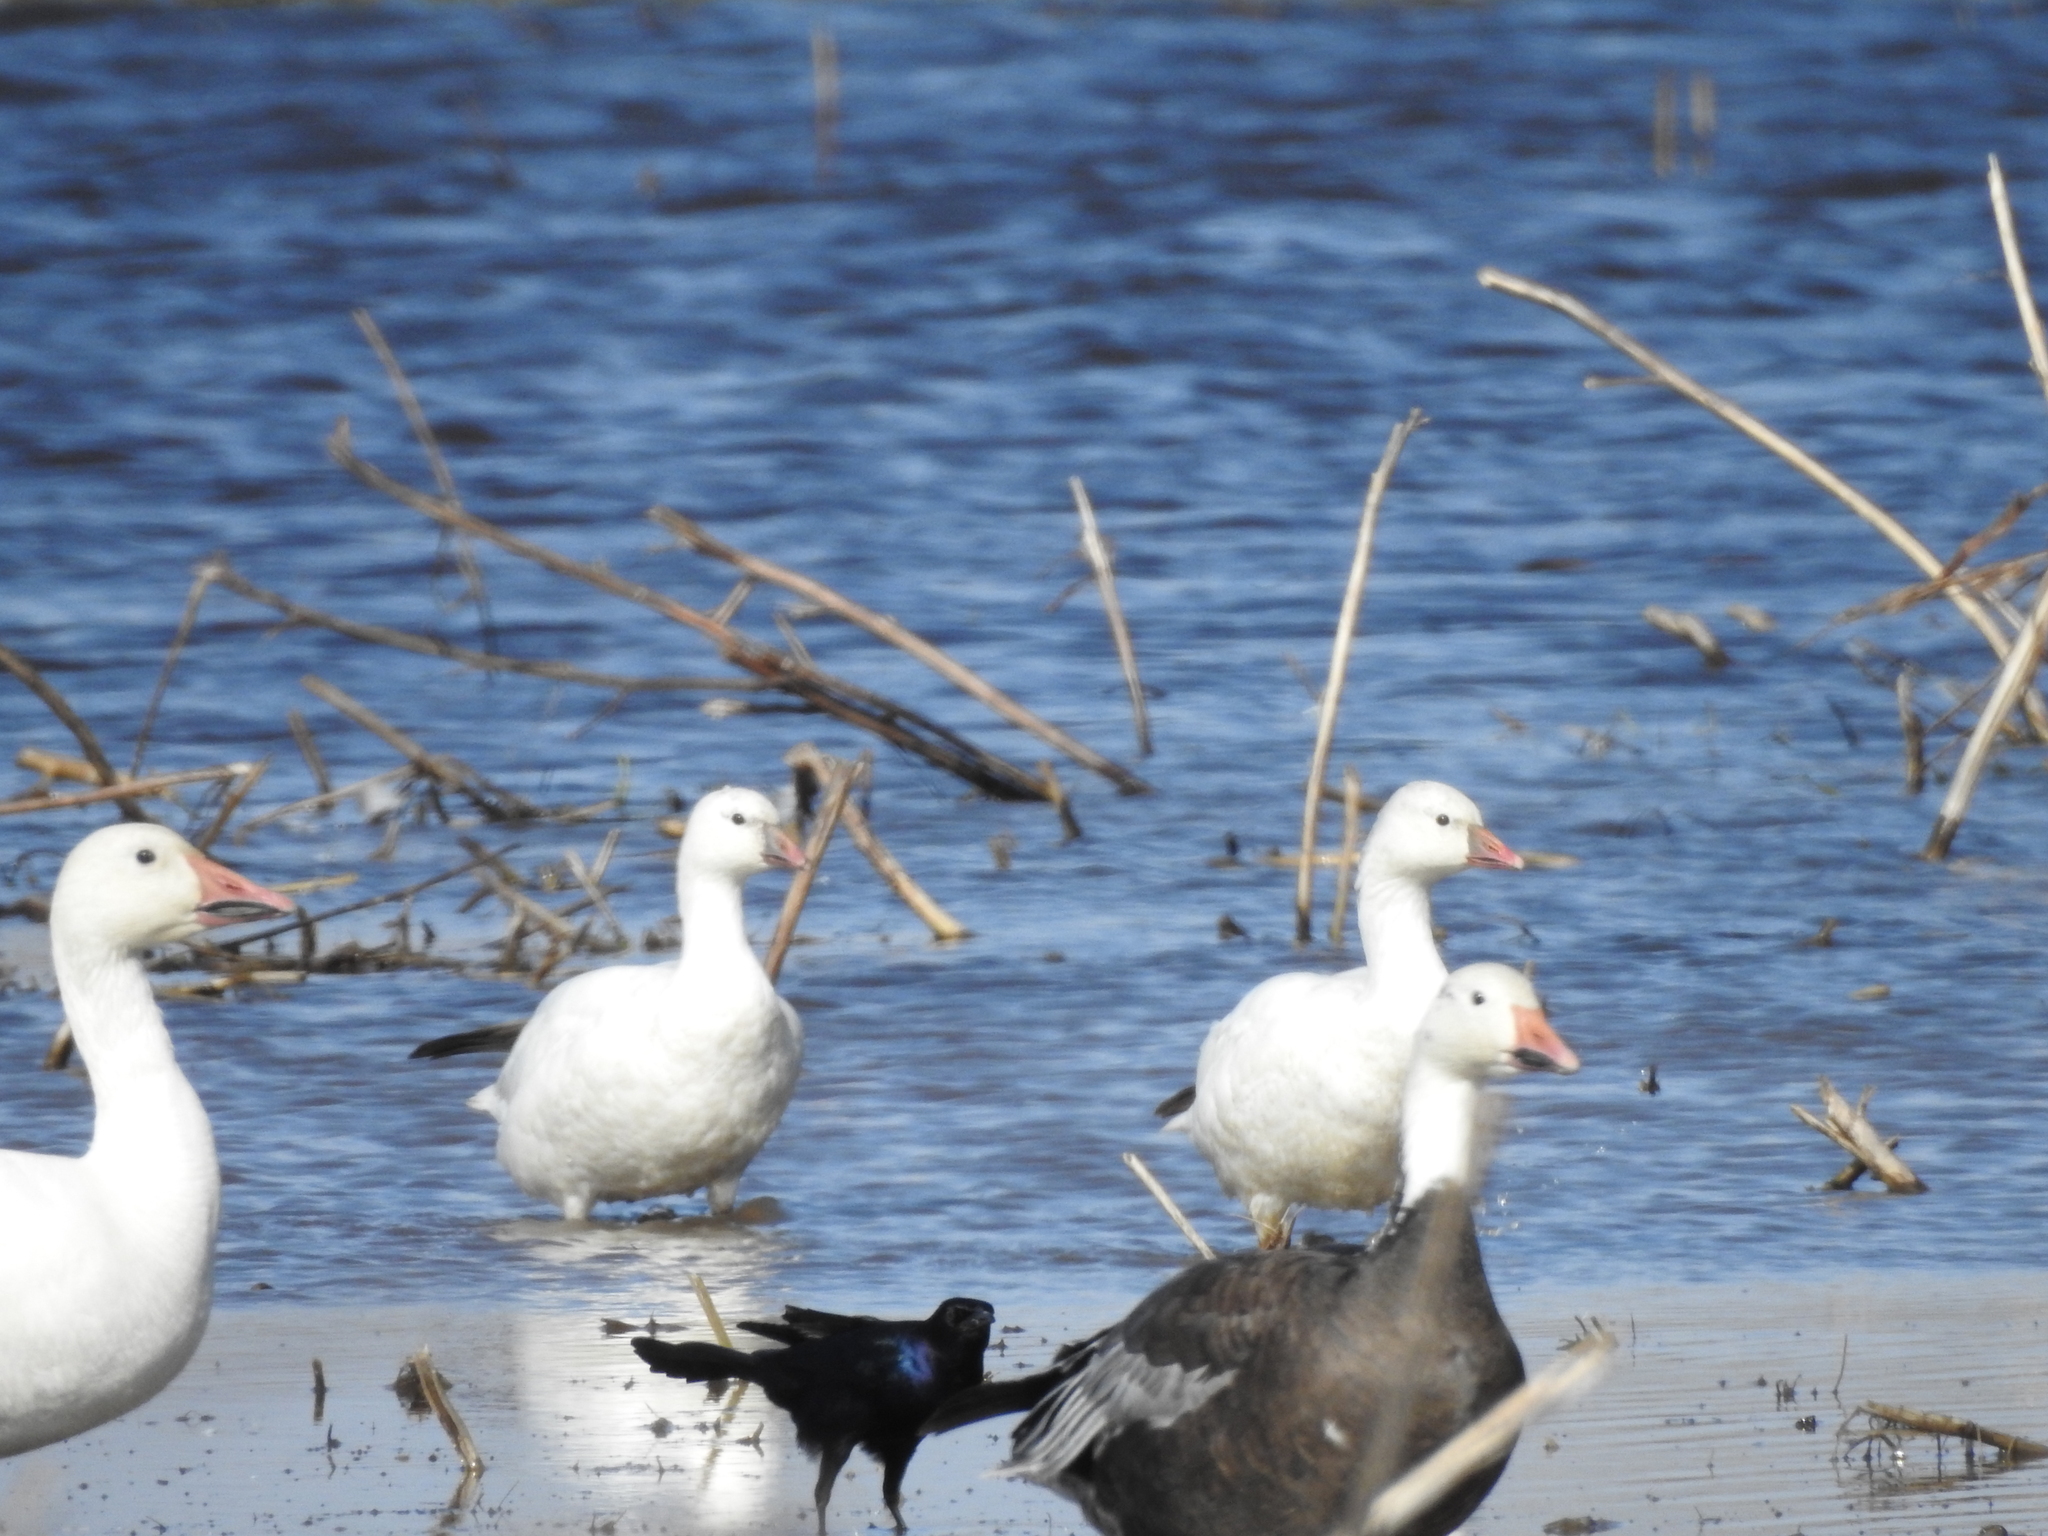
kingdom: Animalia
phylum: Chordata
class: Aves
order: Anseriformes
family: Anatidae
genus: Anser
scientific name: Anser rossii
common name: Ross's goose
